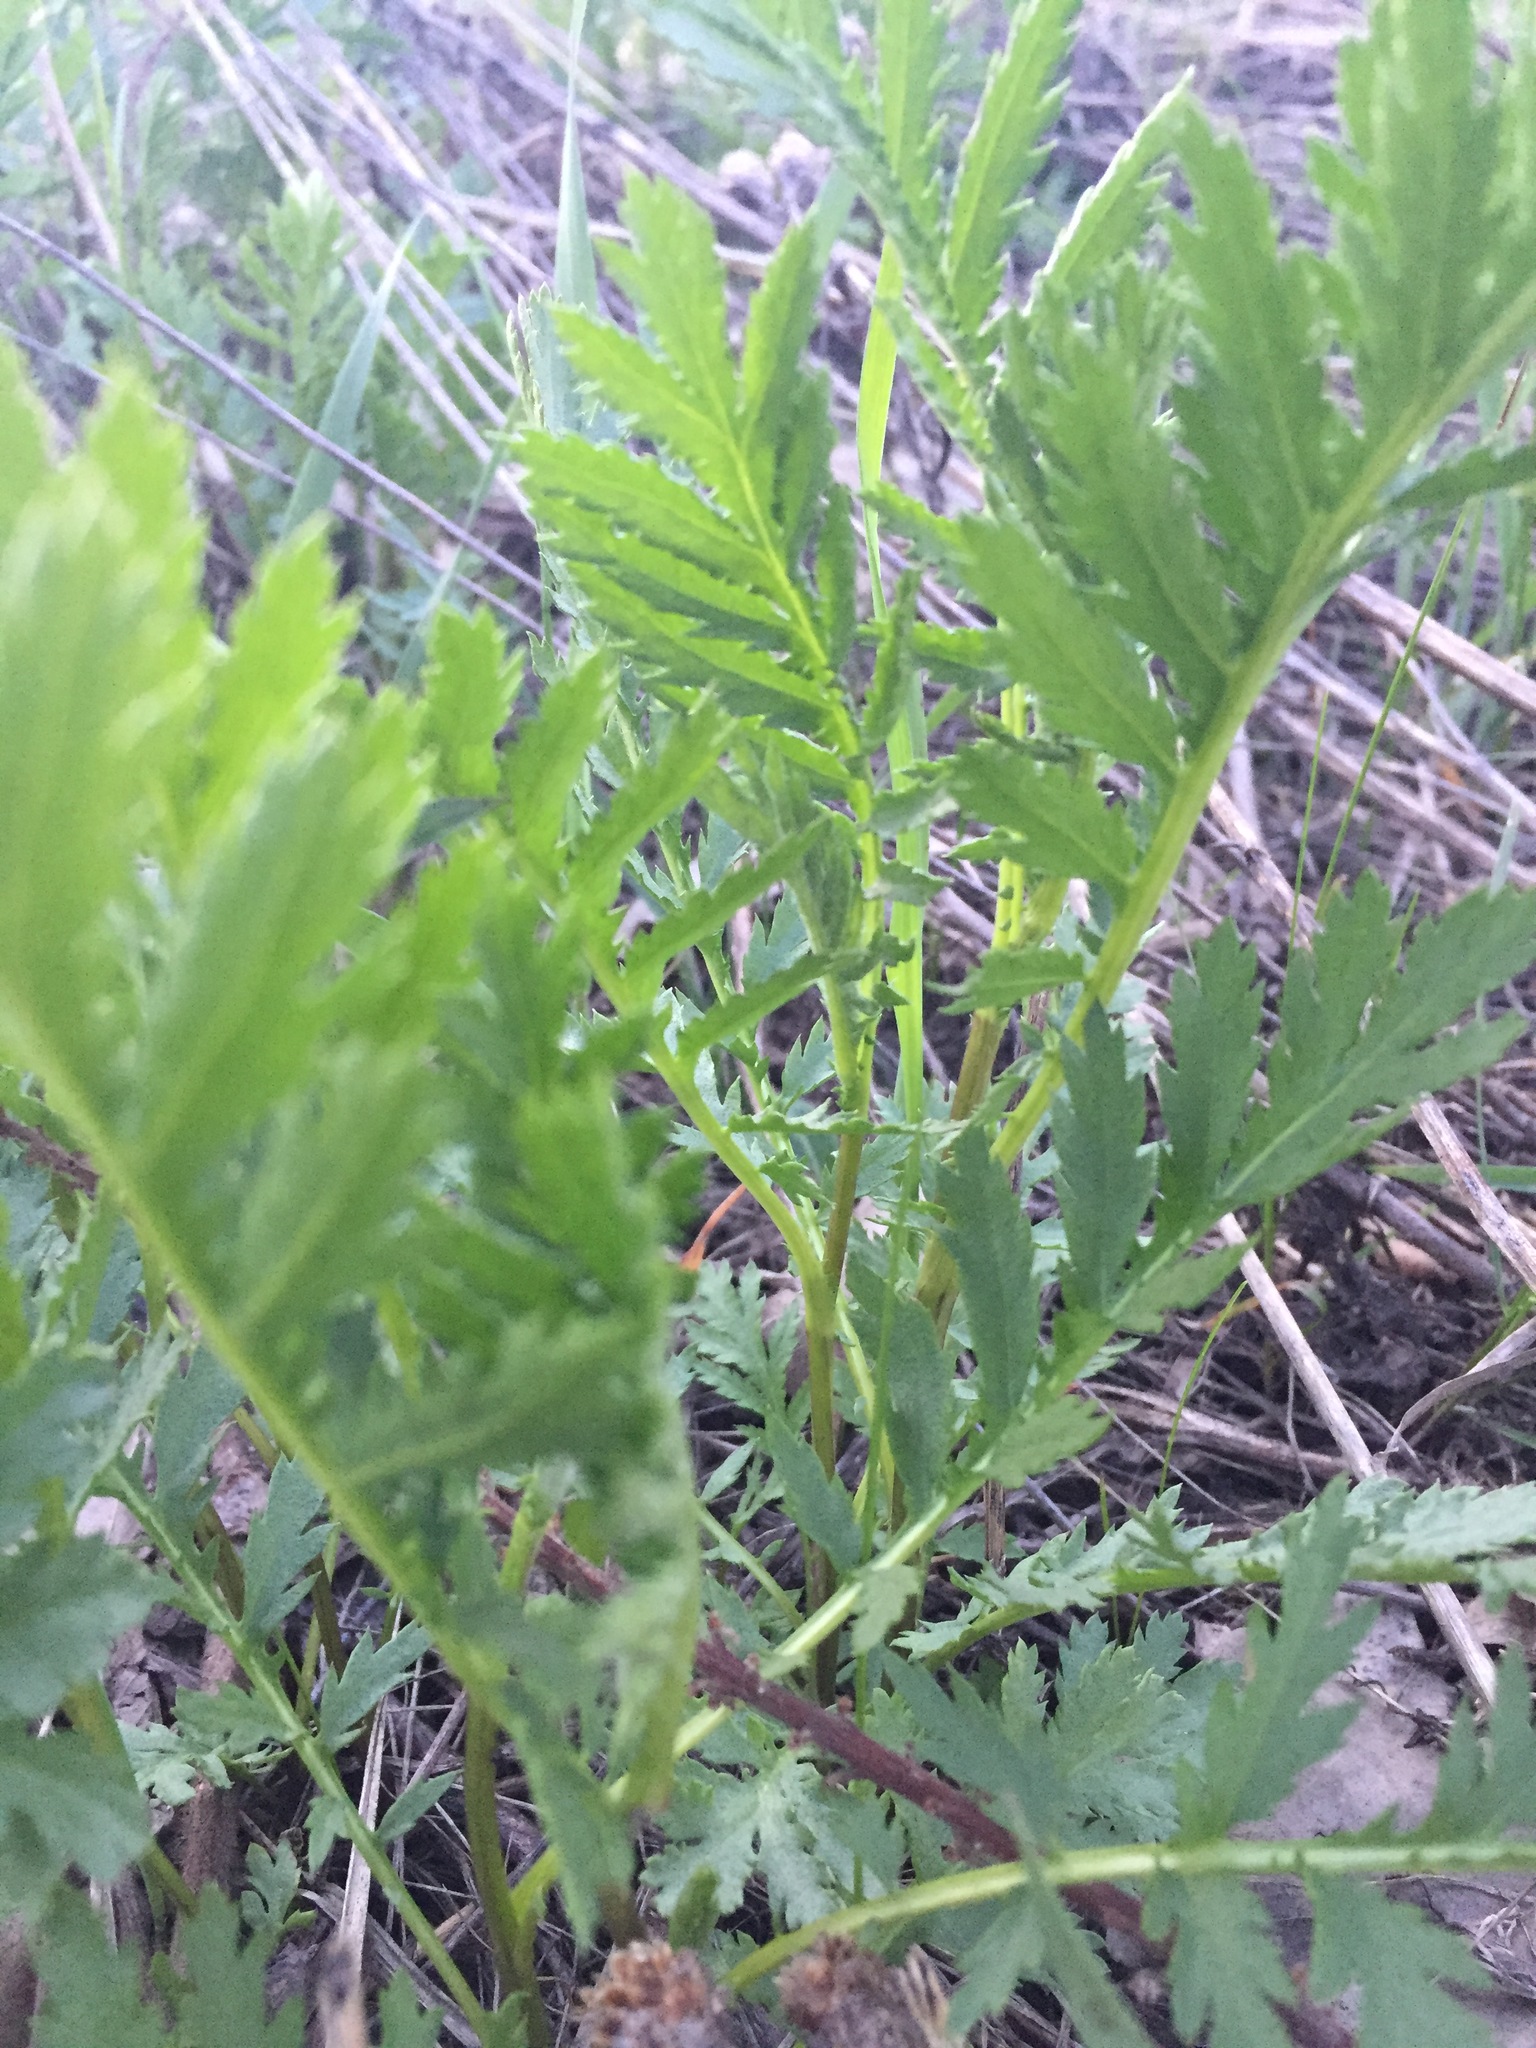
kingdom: Plantae
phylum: Tracheophyta
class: Magnoliopsida
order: Asterales
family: Asteraceae
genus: Tanacetum
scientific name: Tanacetum vulgare
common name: Common tansy
